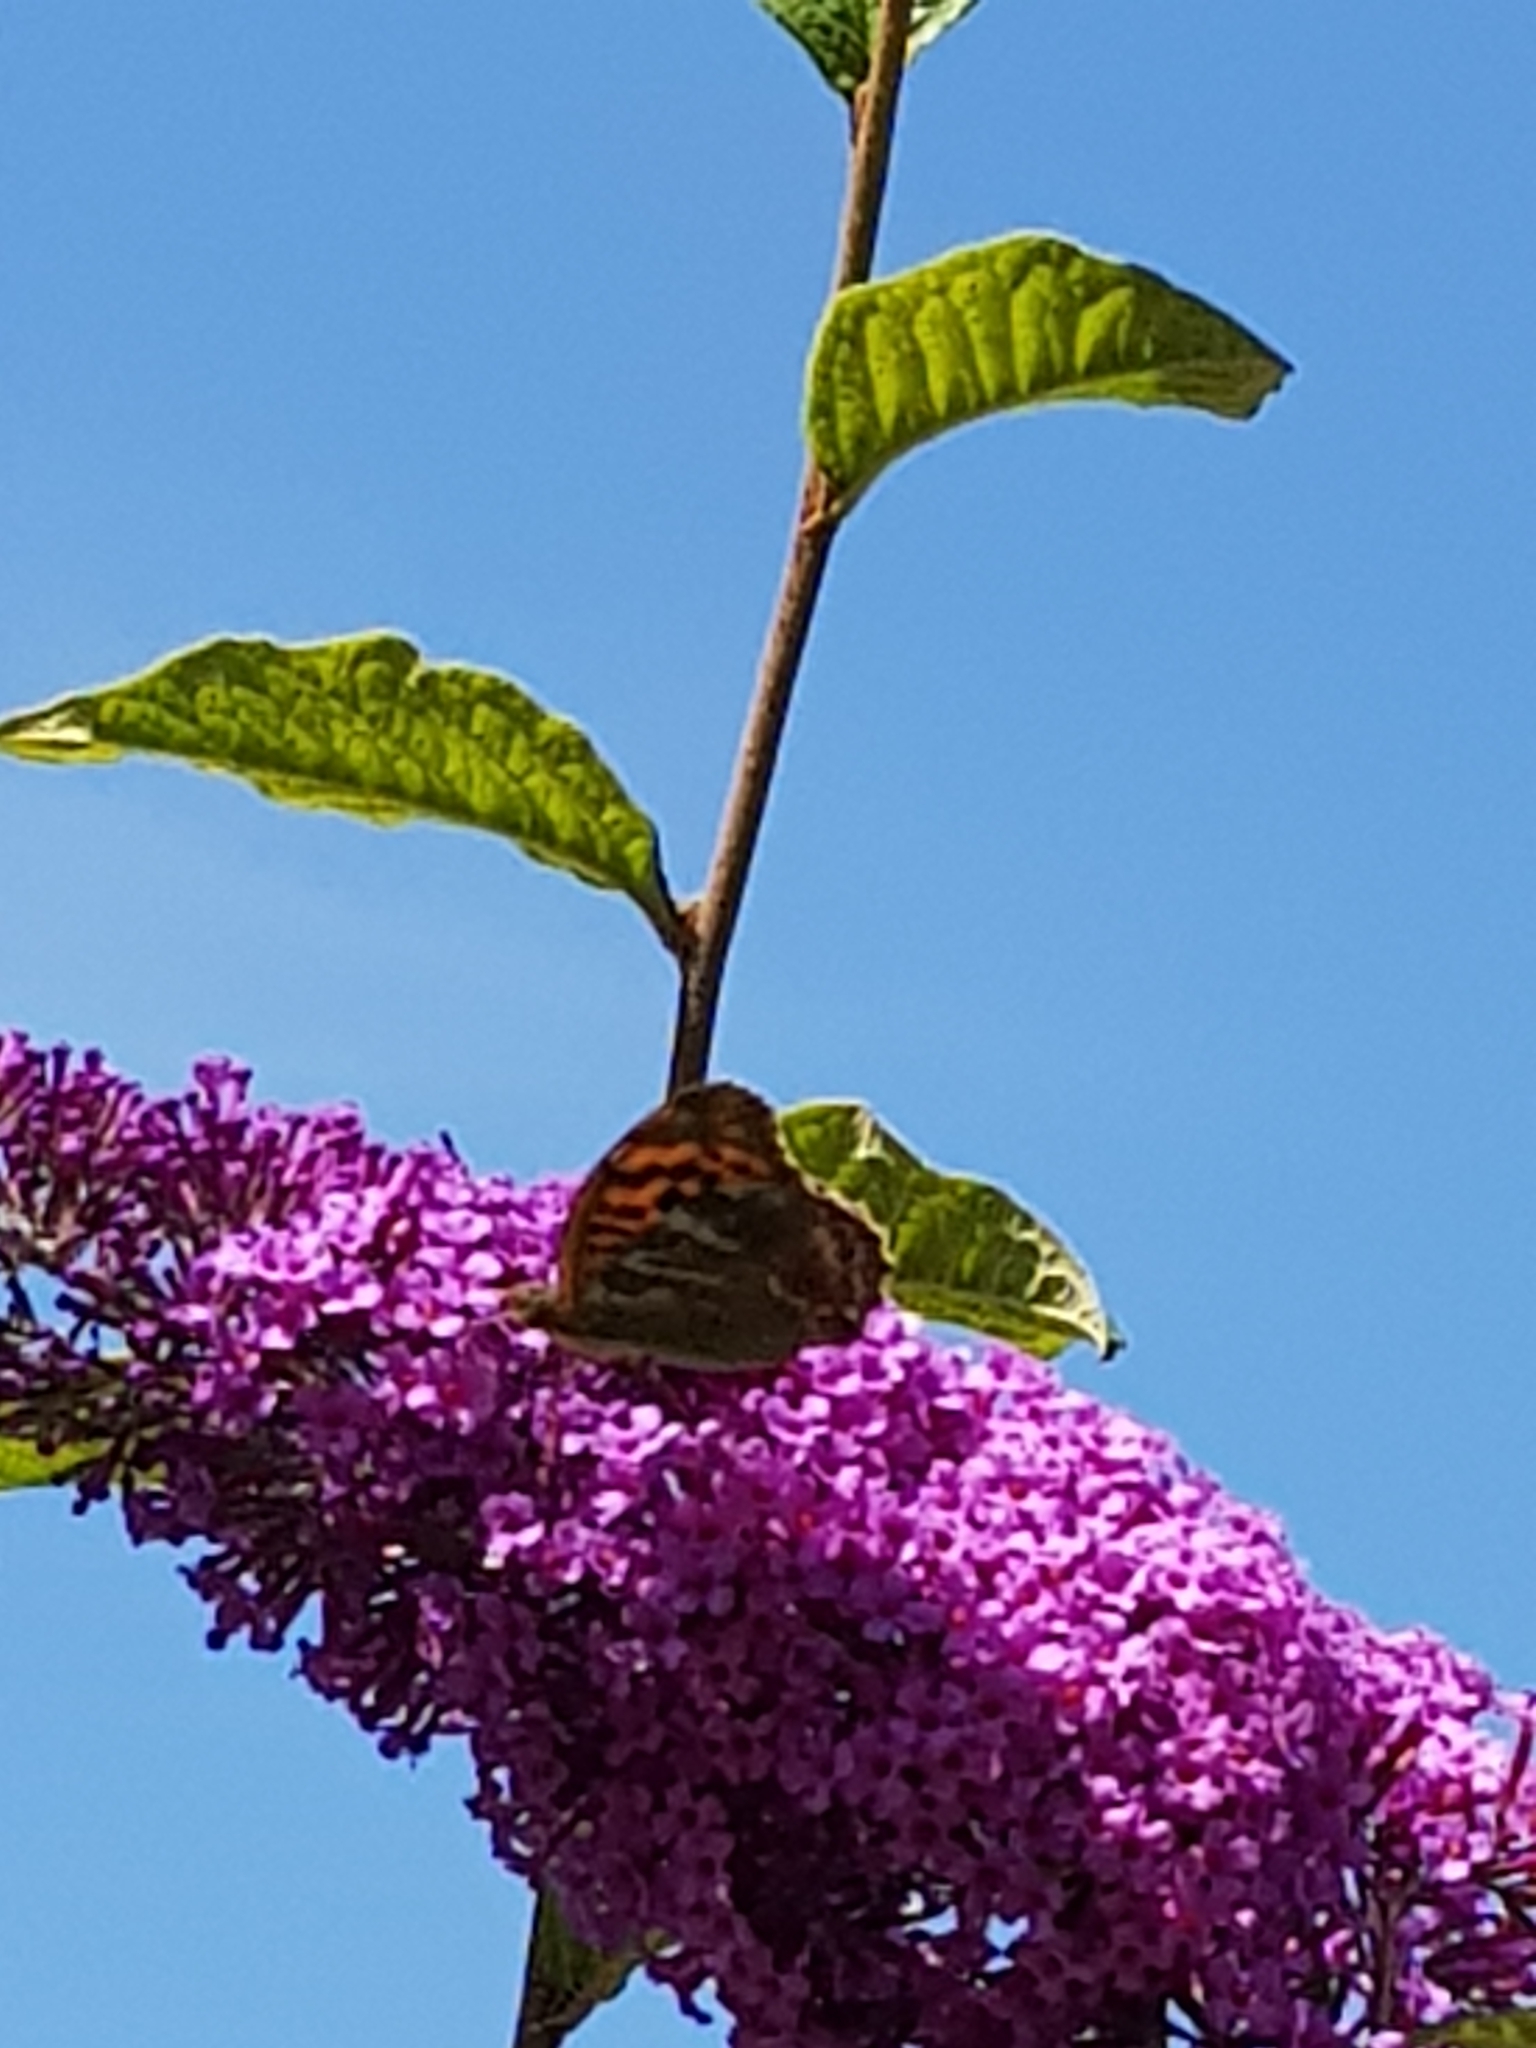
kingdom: Animalia
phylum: Arthropoda
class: Insecta
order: Lepidoptera
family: Nymphalidae
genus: Argynnis
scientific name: Argynnis paphia
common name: Silver-washed fritillary
